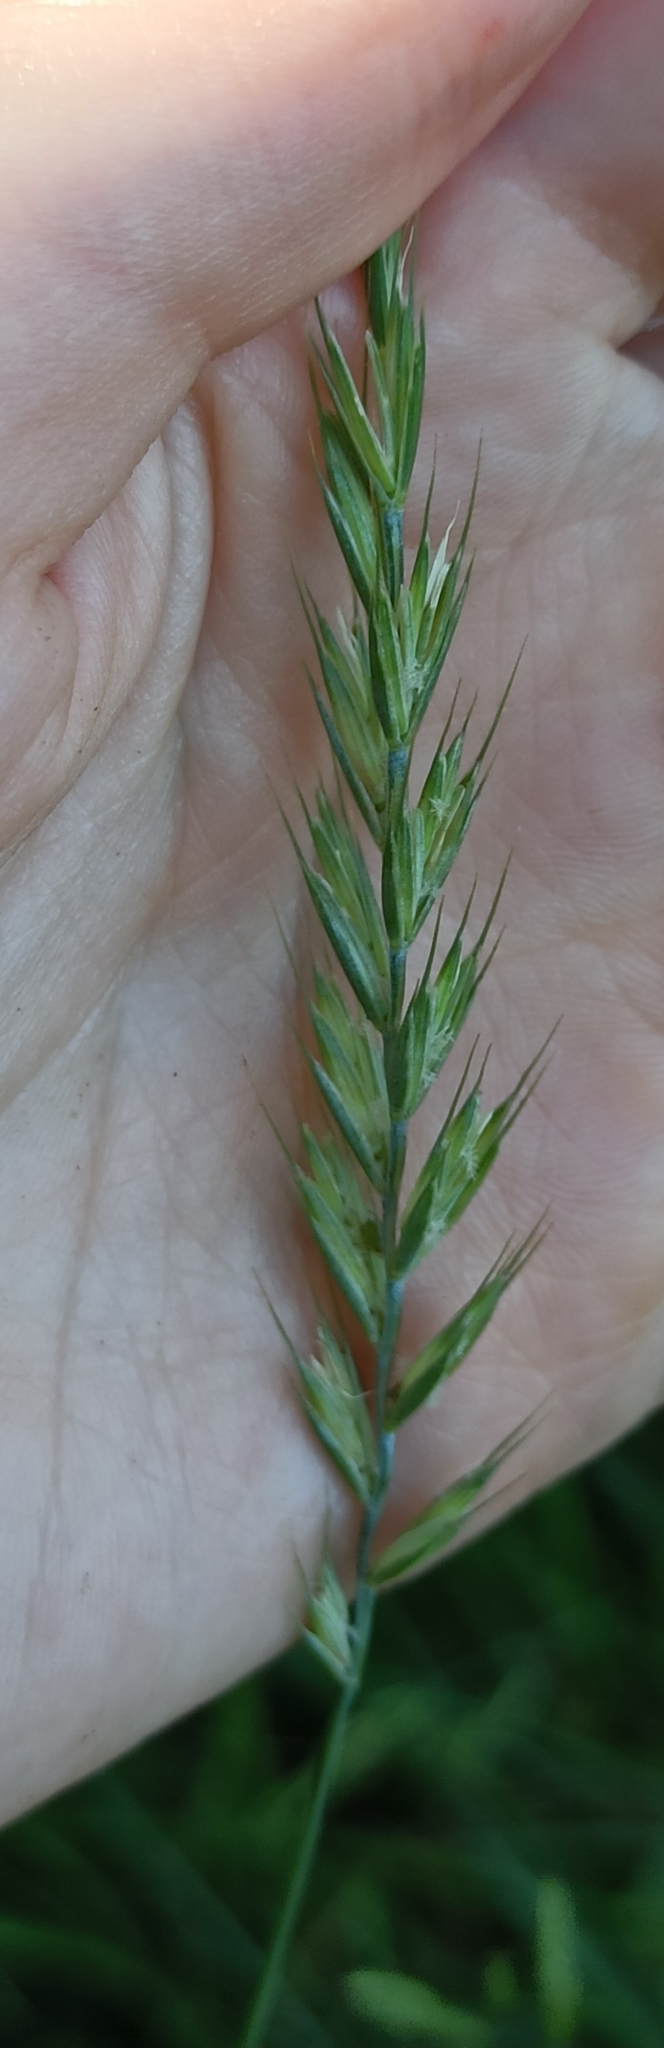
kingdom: Plantae
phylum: Tracheophyta
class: Liliopsida
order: Poales
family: Poaceae
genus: Elymus
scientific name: Elymus repens
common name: Quackgrass
